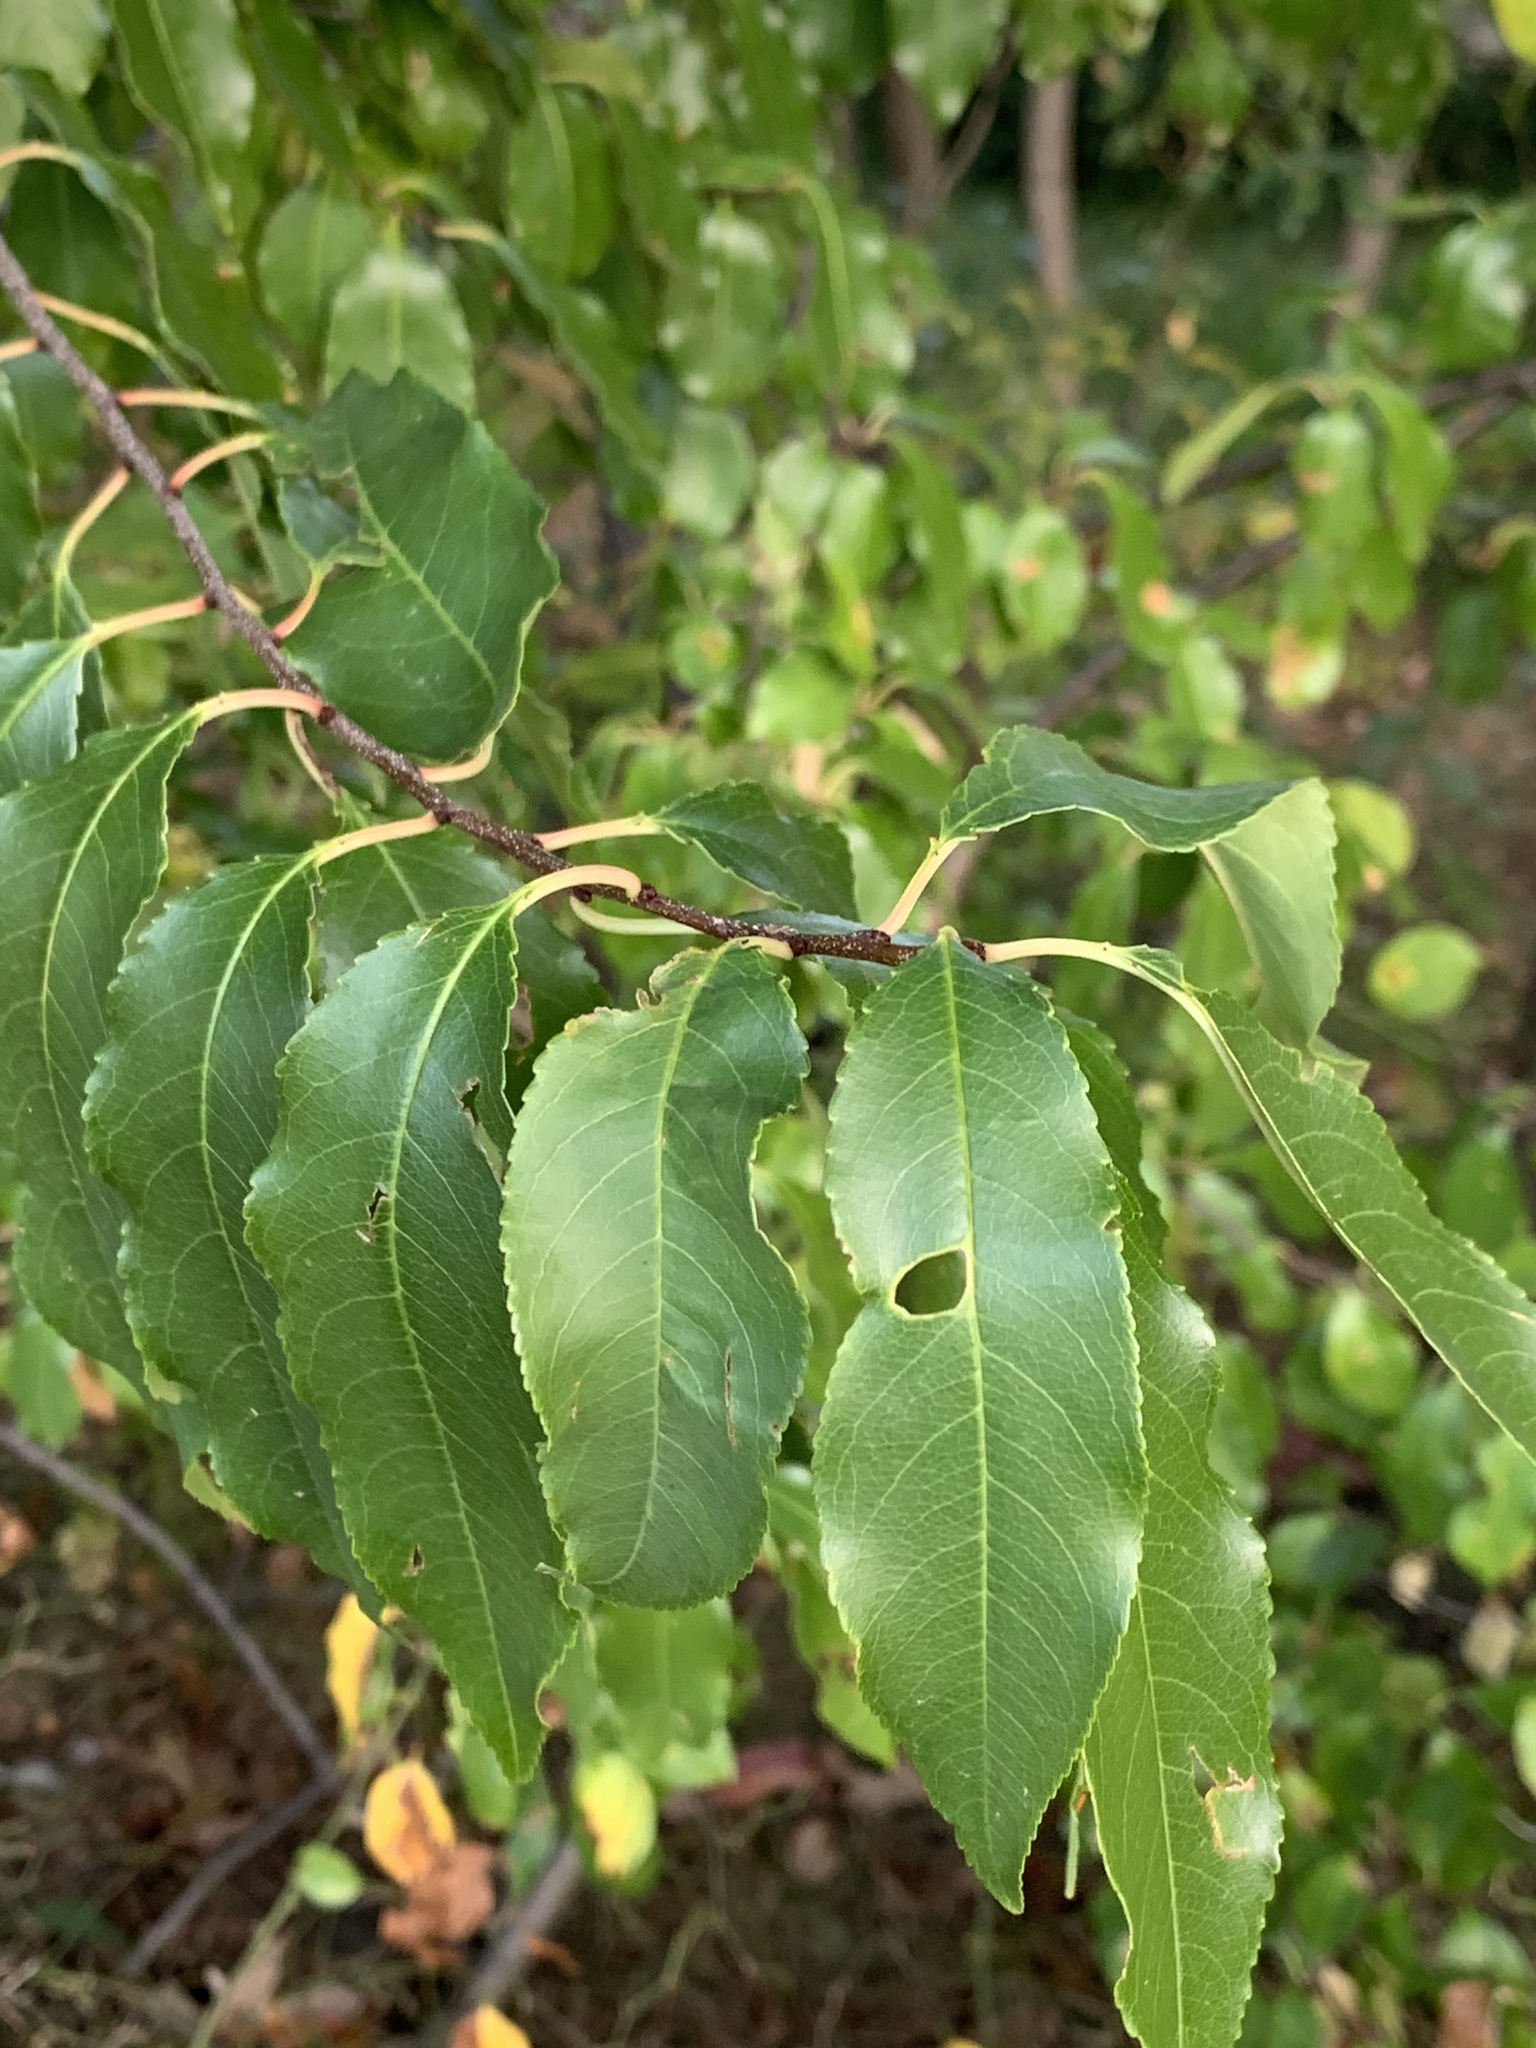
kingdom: Plantae
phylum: Tracheophyta
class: Magnoliopsida
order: Rosales
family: Rosaceae
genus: Prunus
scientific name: Prunus serotina
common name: Black cherry
